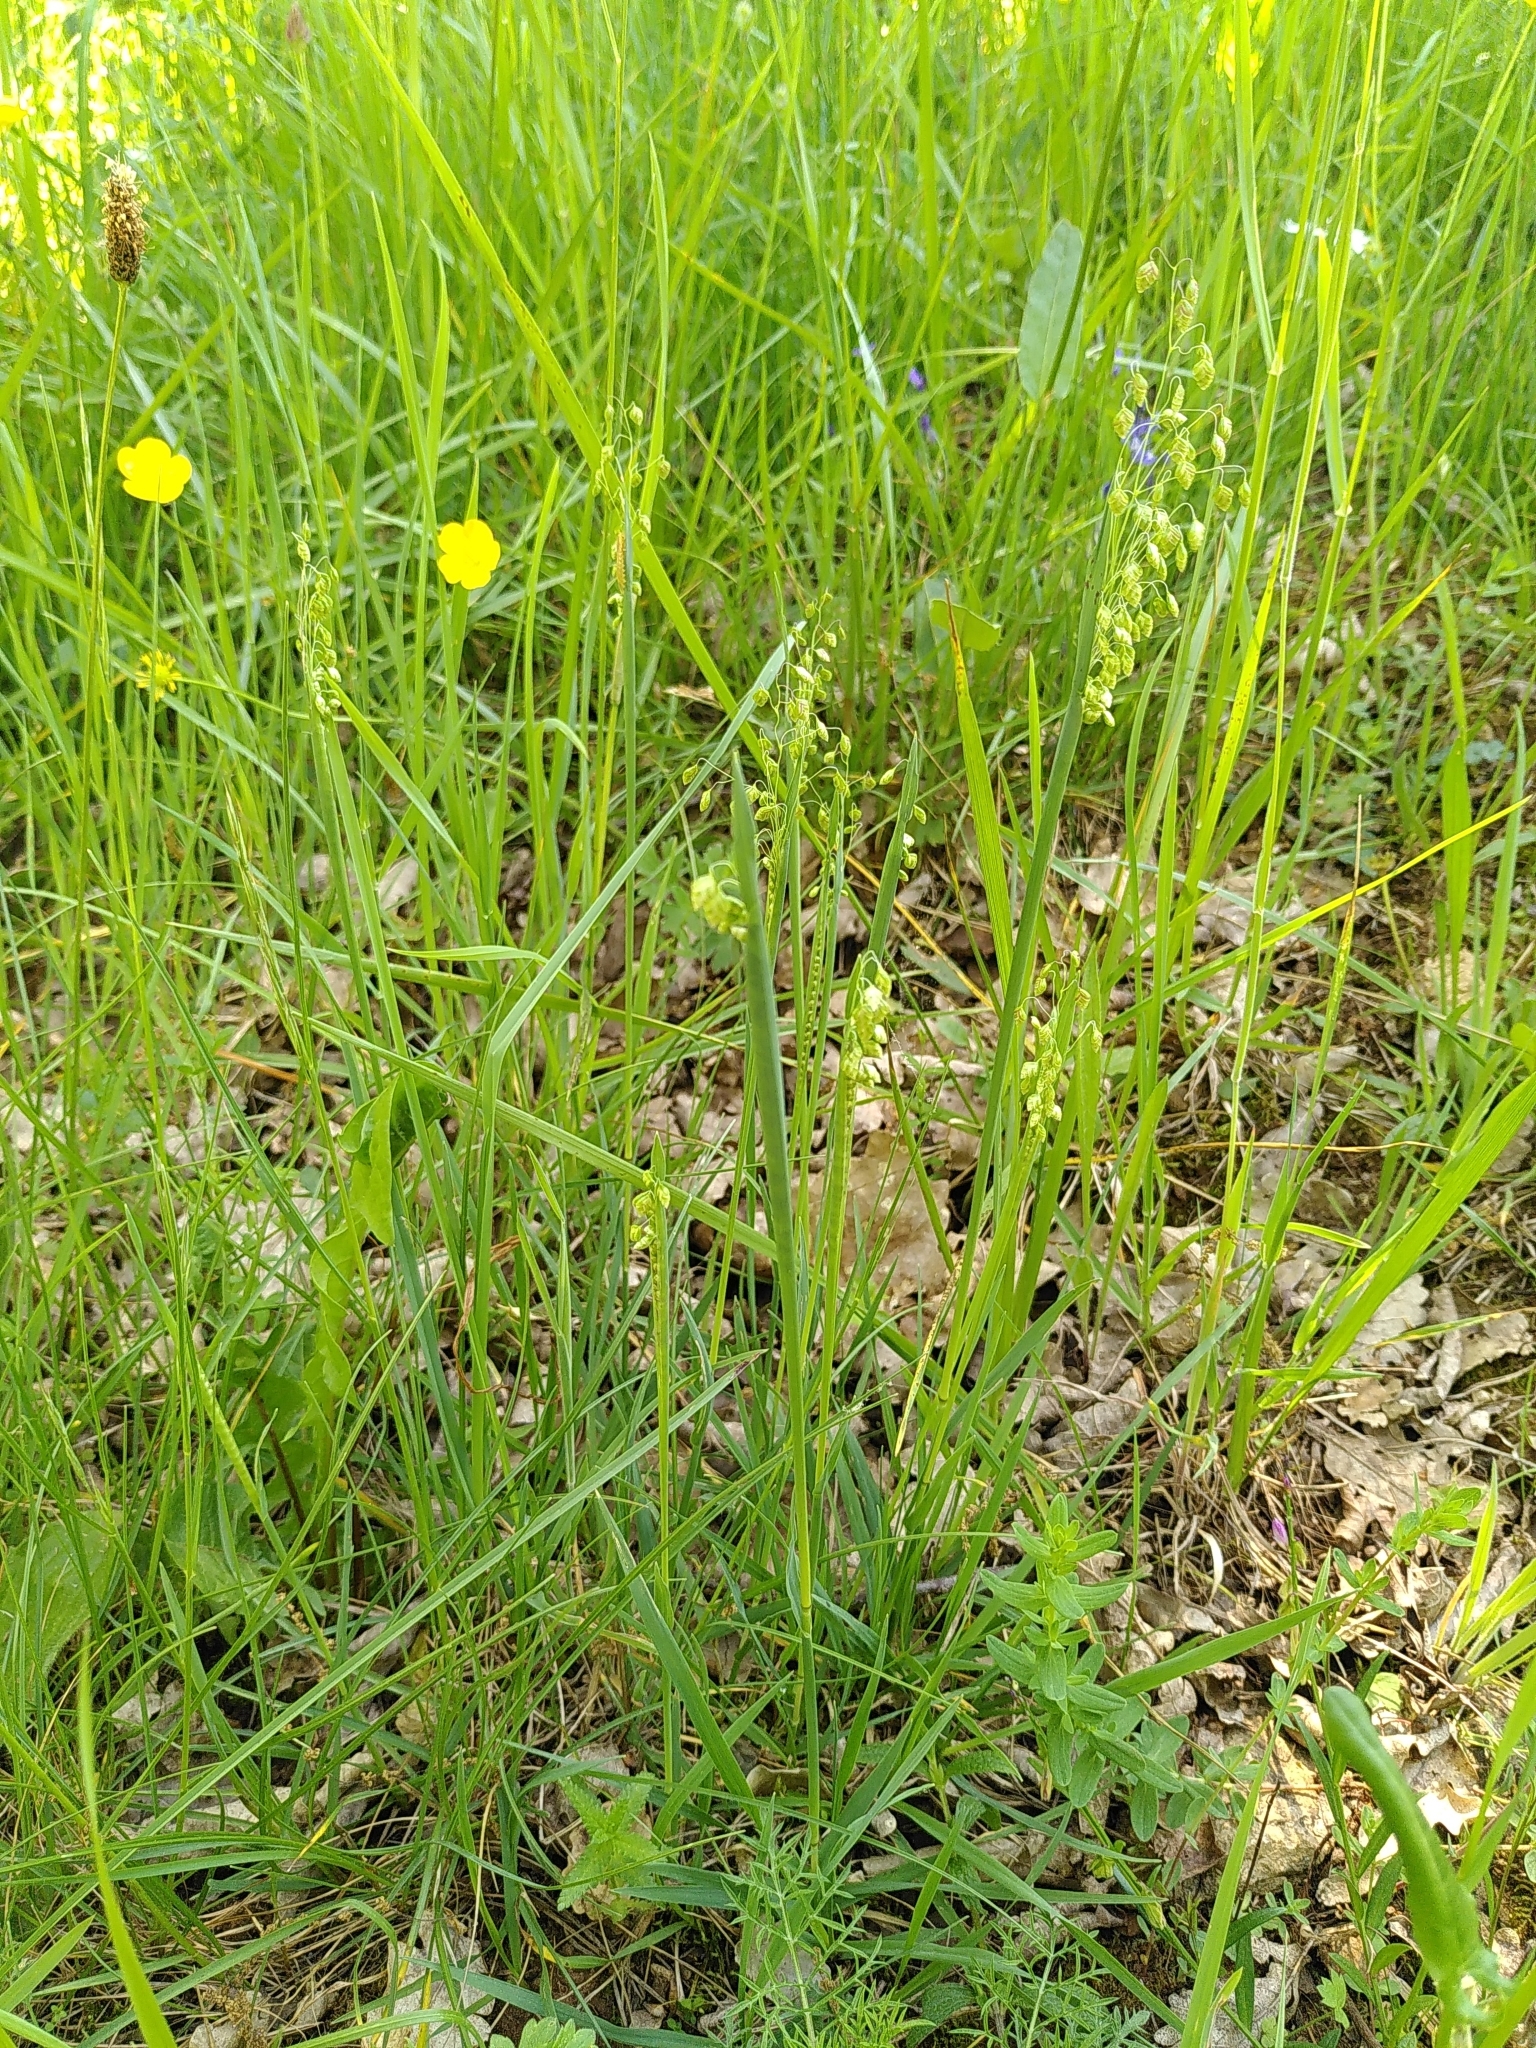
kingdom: Plantae
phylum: Tracheophyta
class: Liliopsida
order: Poales
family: Poaceae
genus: Briza
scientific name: Briza media
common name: Quaking grass
